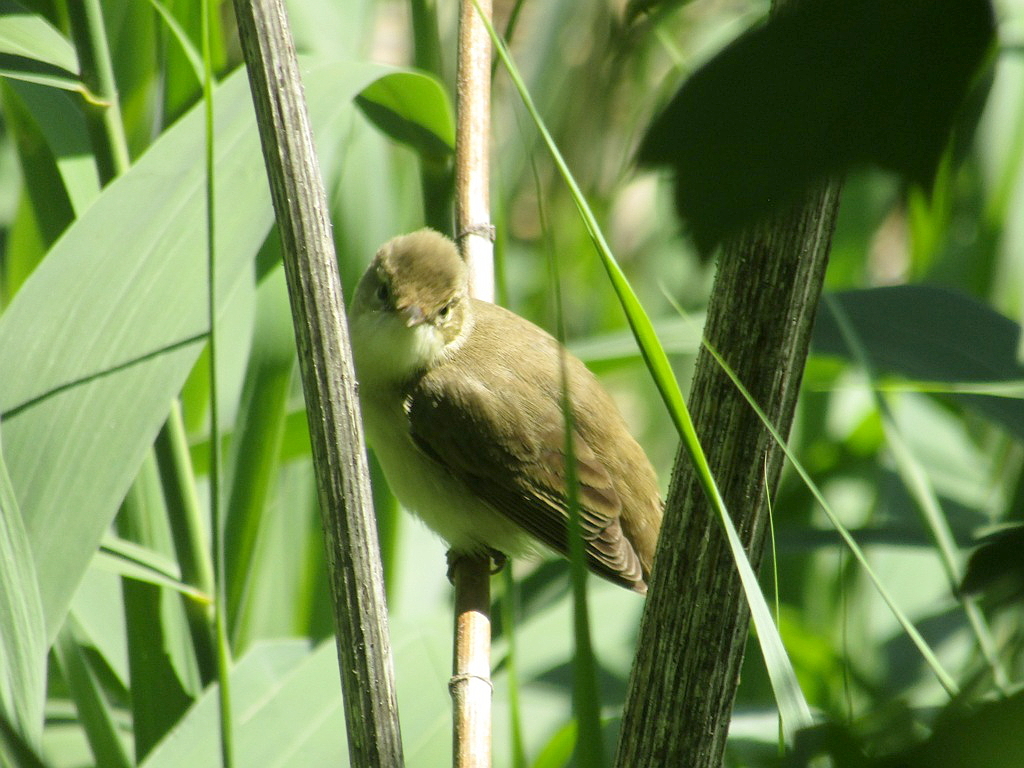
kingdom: Animalia
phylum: Chordata
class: Aves
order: Passeriformes
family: Acrocephalidae
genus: Acrocephalus
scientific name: Acrocephalus palustris
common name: Marsh warbler
